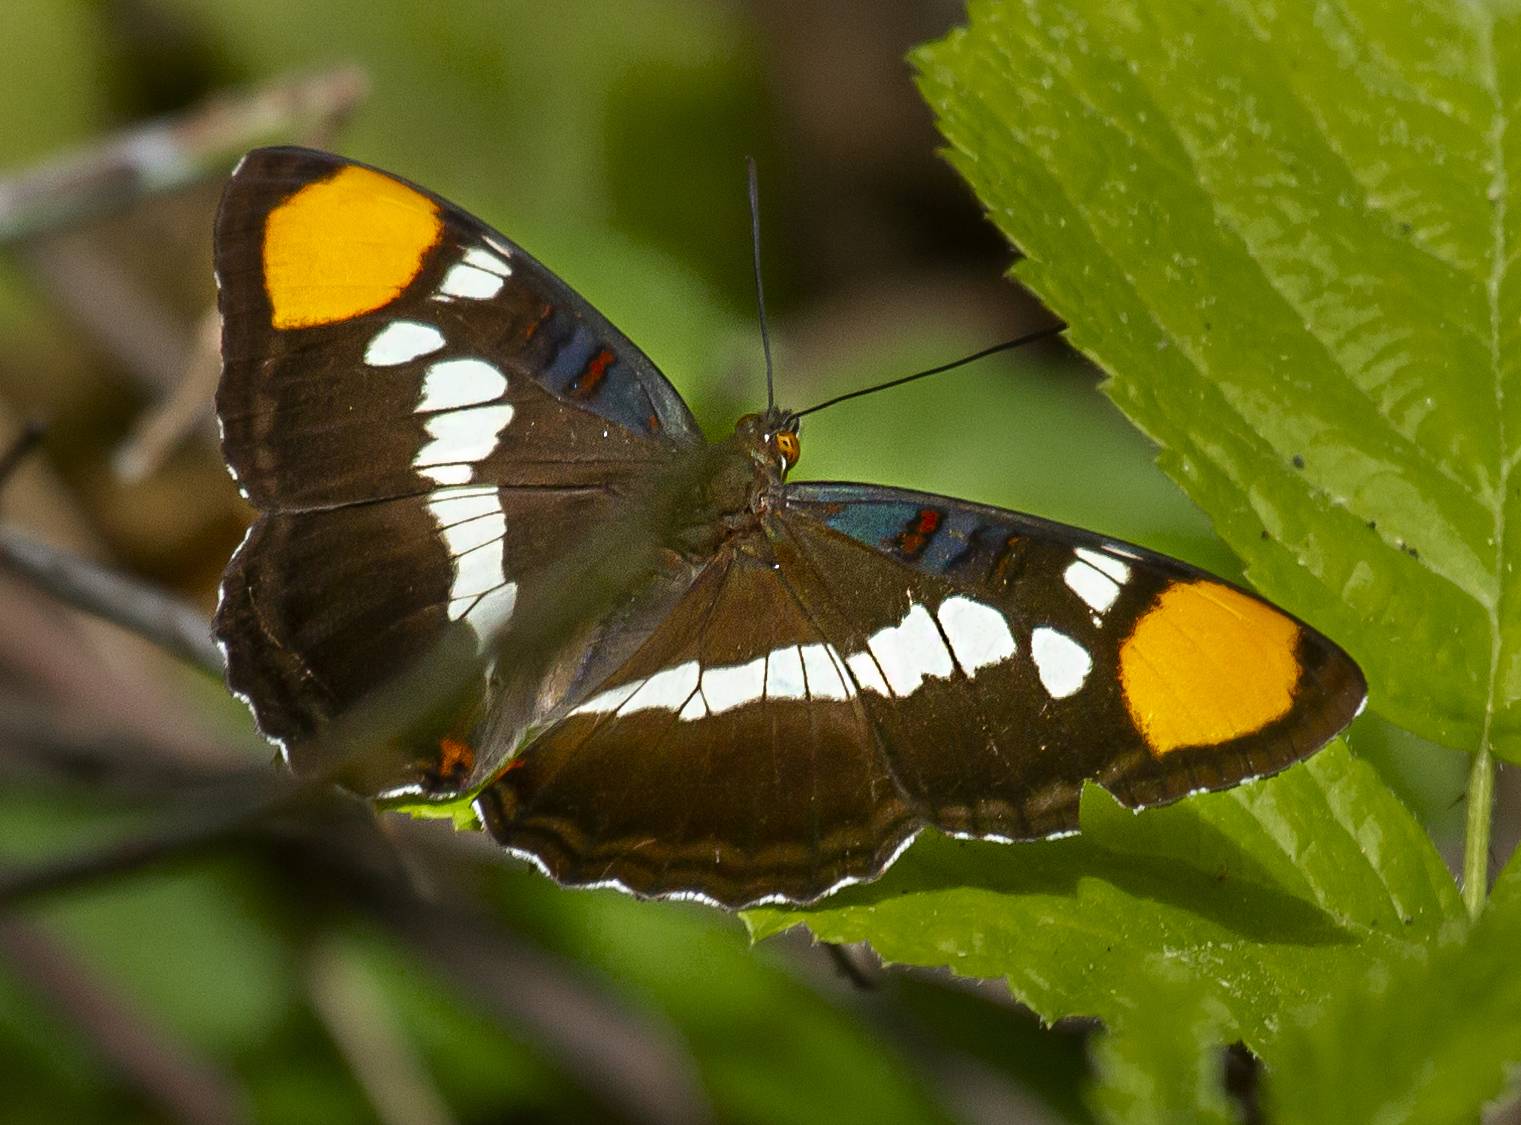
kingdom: Animalia
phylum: Arthropoda
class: Insecta
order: Lepidoptera
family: Nymphalidae
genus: Limenitis
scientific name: Limenitis bredowii
